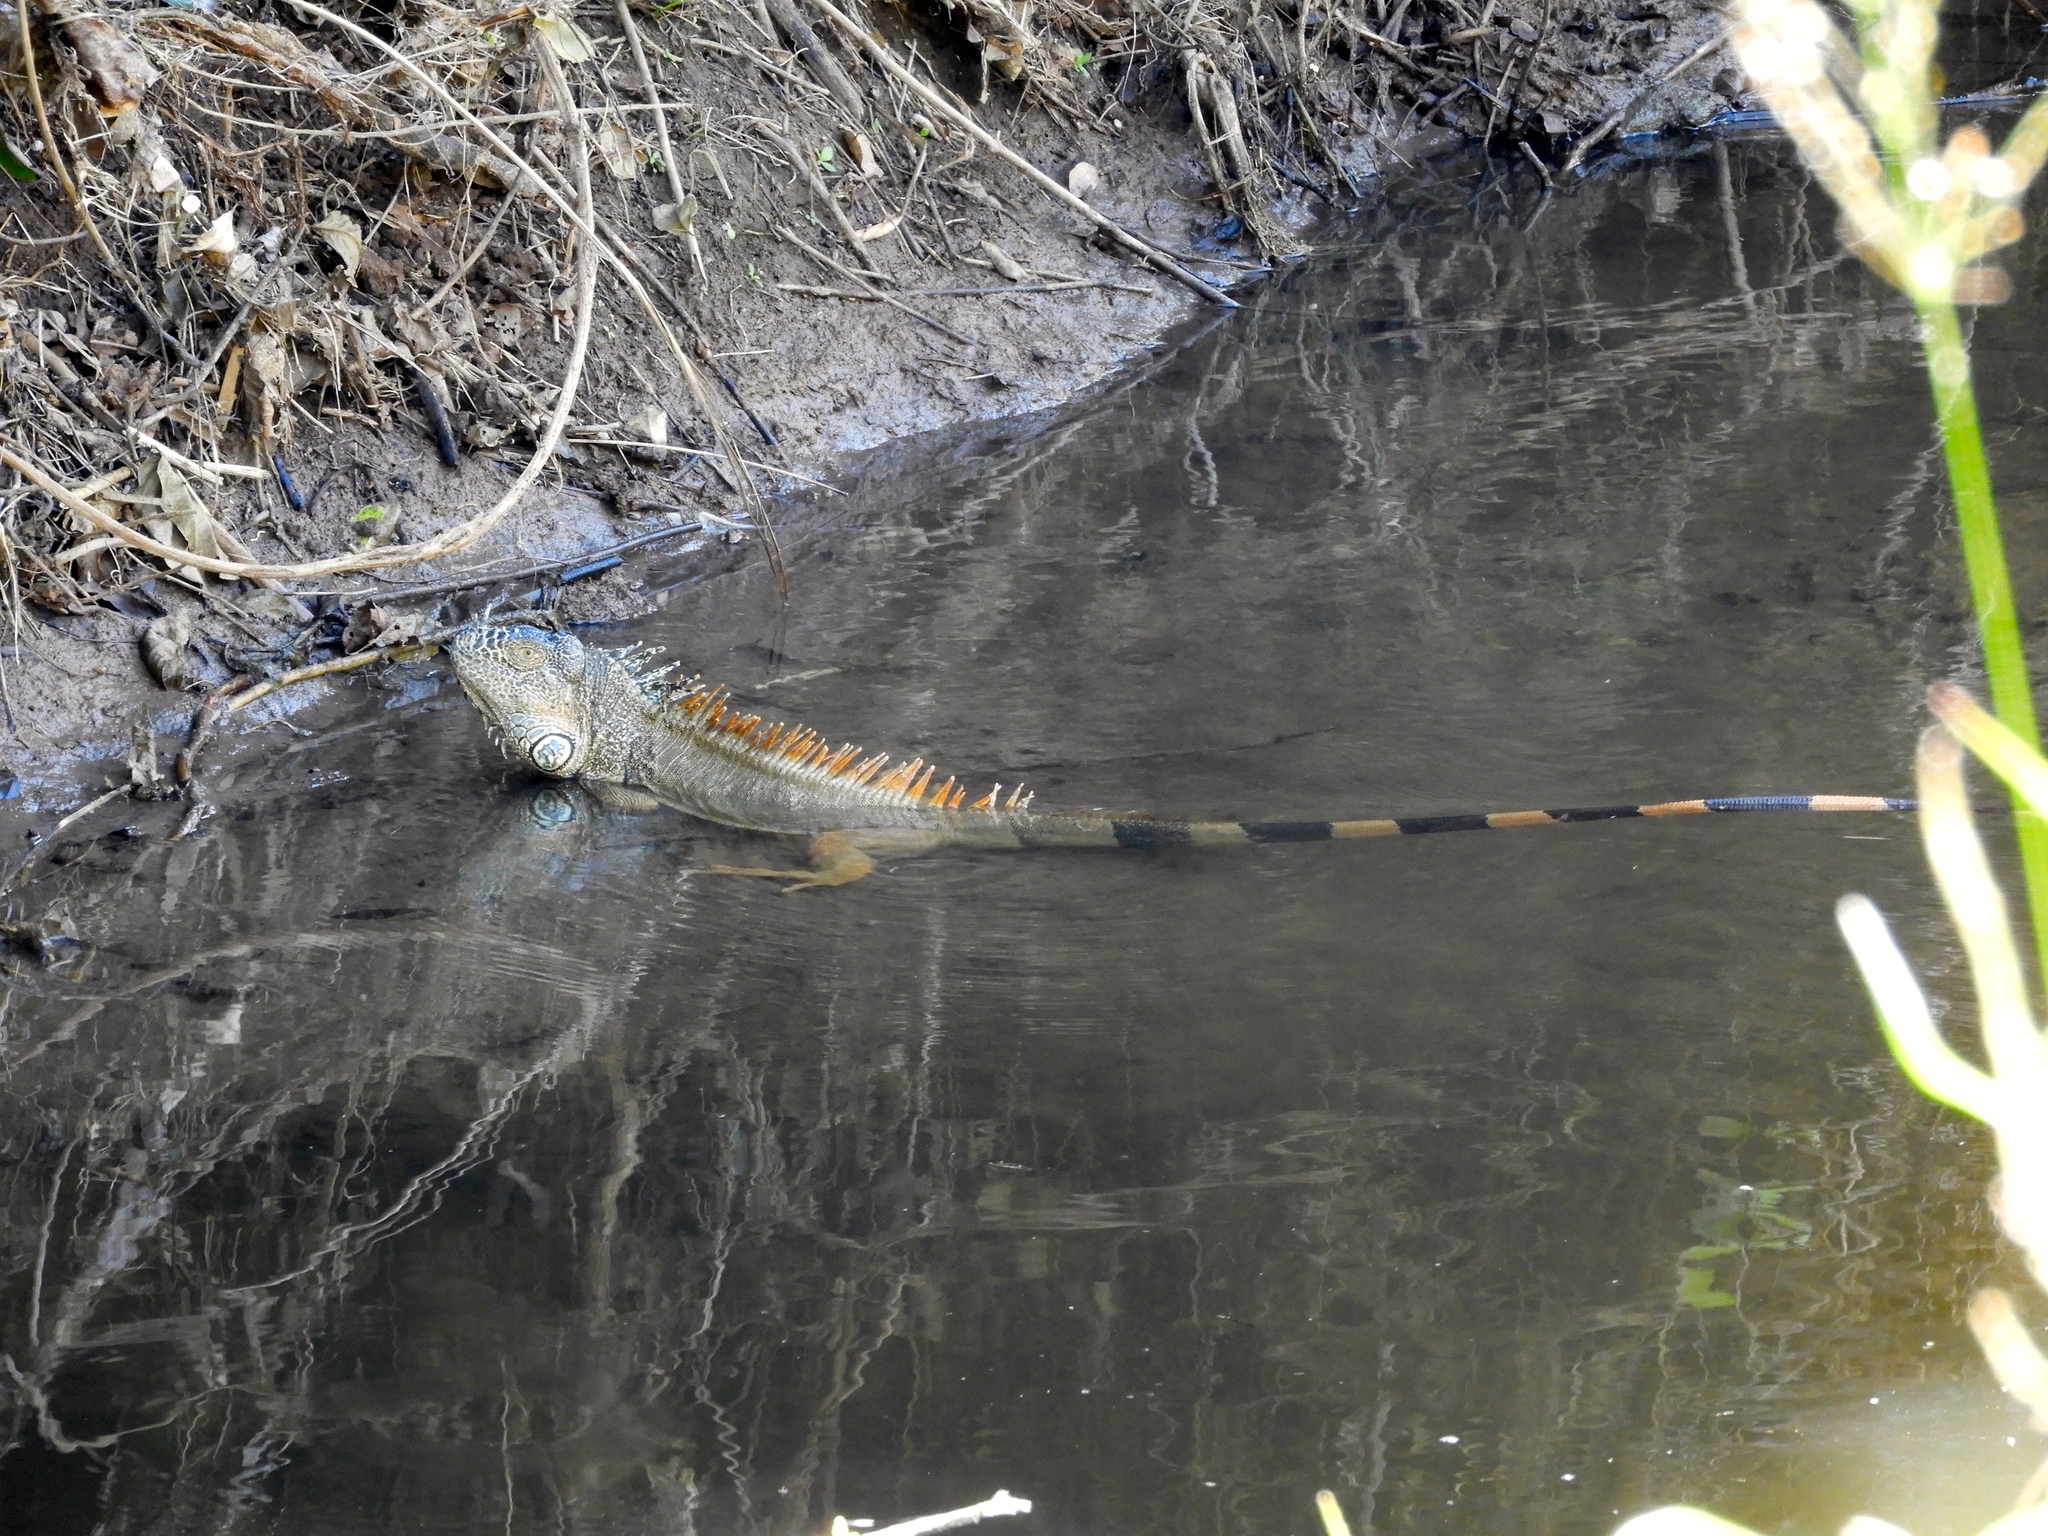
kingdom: Animalia
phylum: Chordata
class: Squamata
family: Iguanidae
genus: Iguana
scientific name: Iguana iguana
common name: Green iguana
